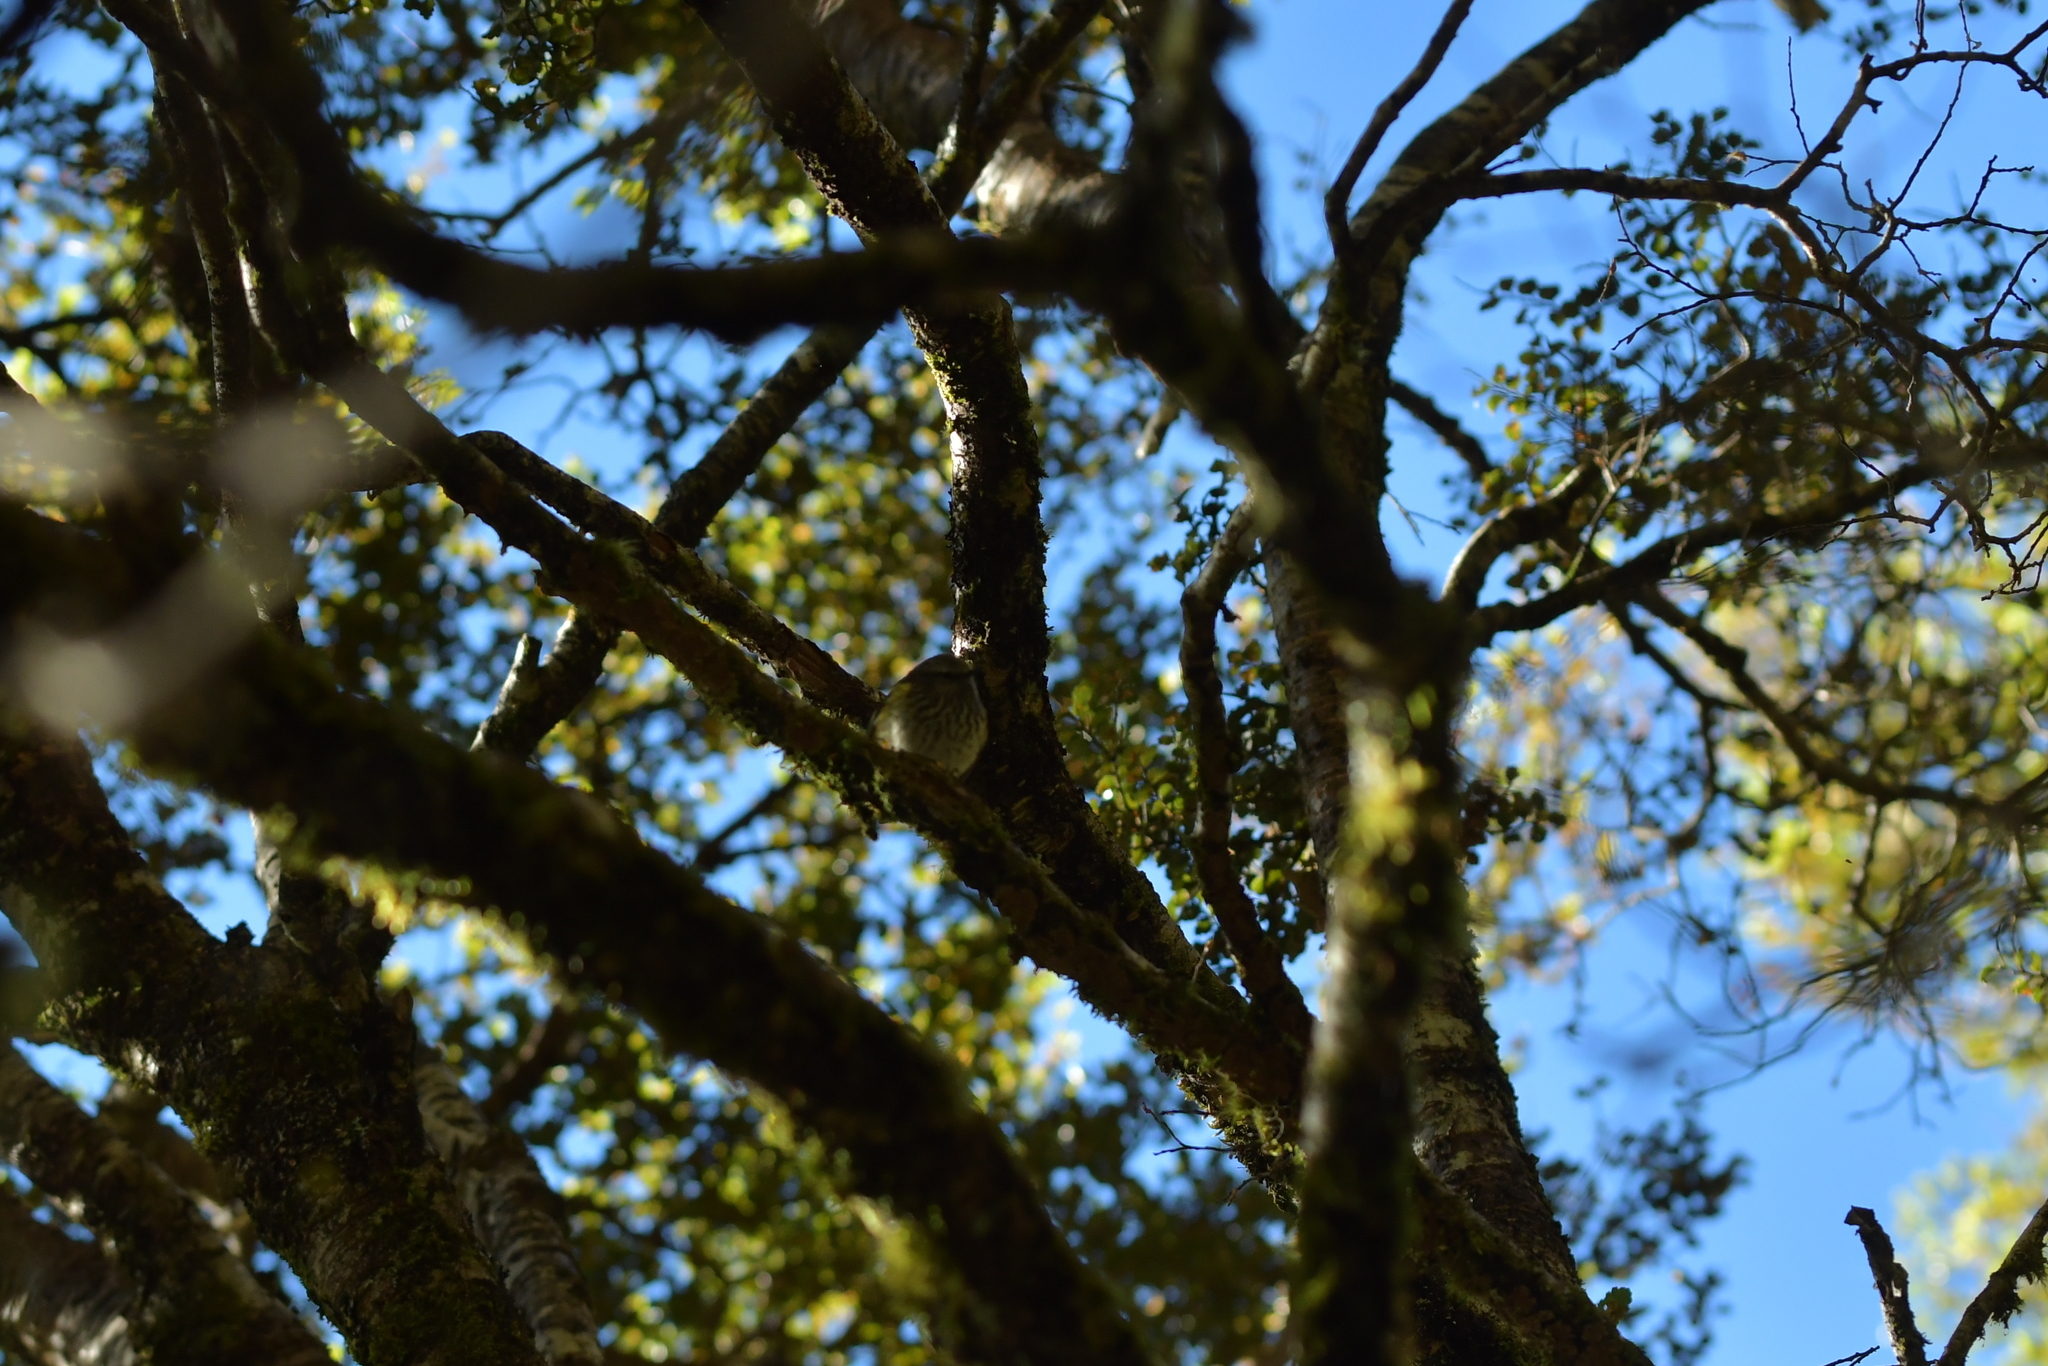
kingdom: Animalia
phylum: Chordata
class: Aves
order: Passeriformes
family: Acanthisittidae
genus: Acanthisitta
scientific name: Acanthisitta chloris
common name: Rifleman
